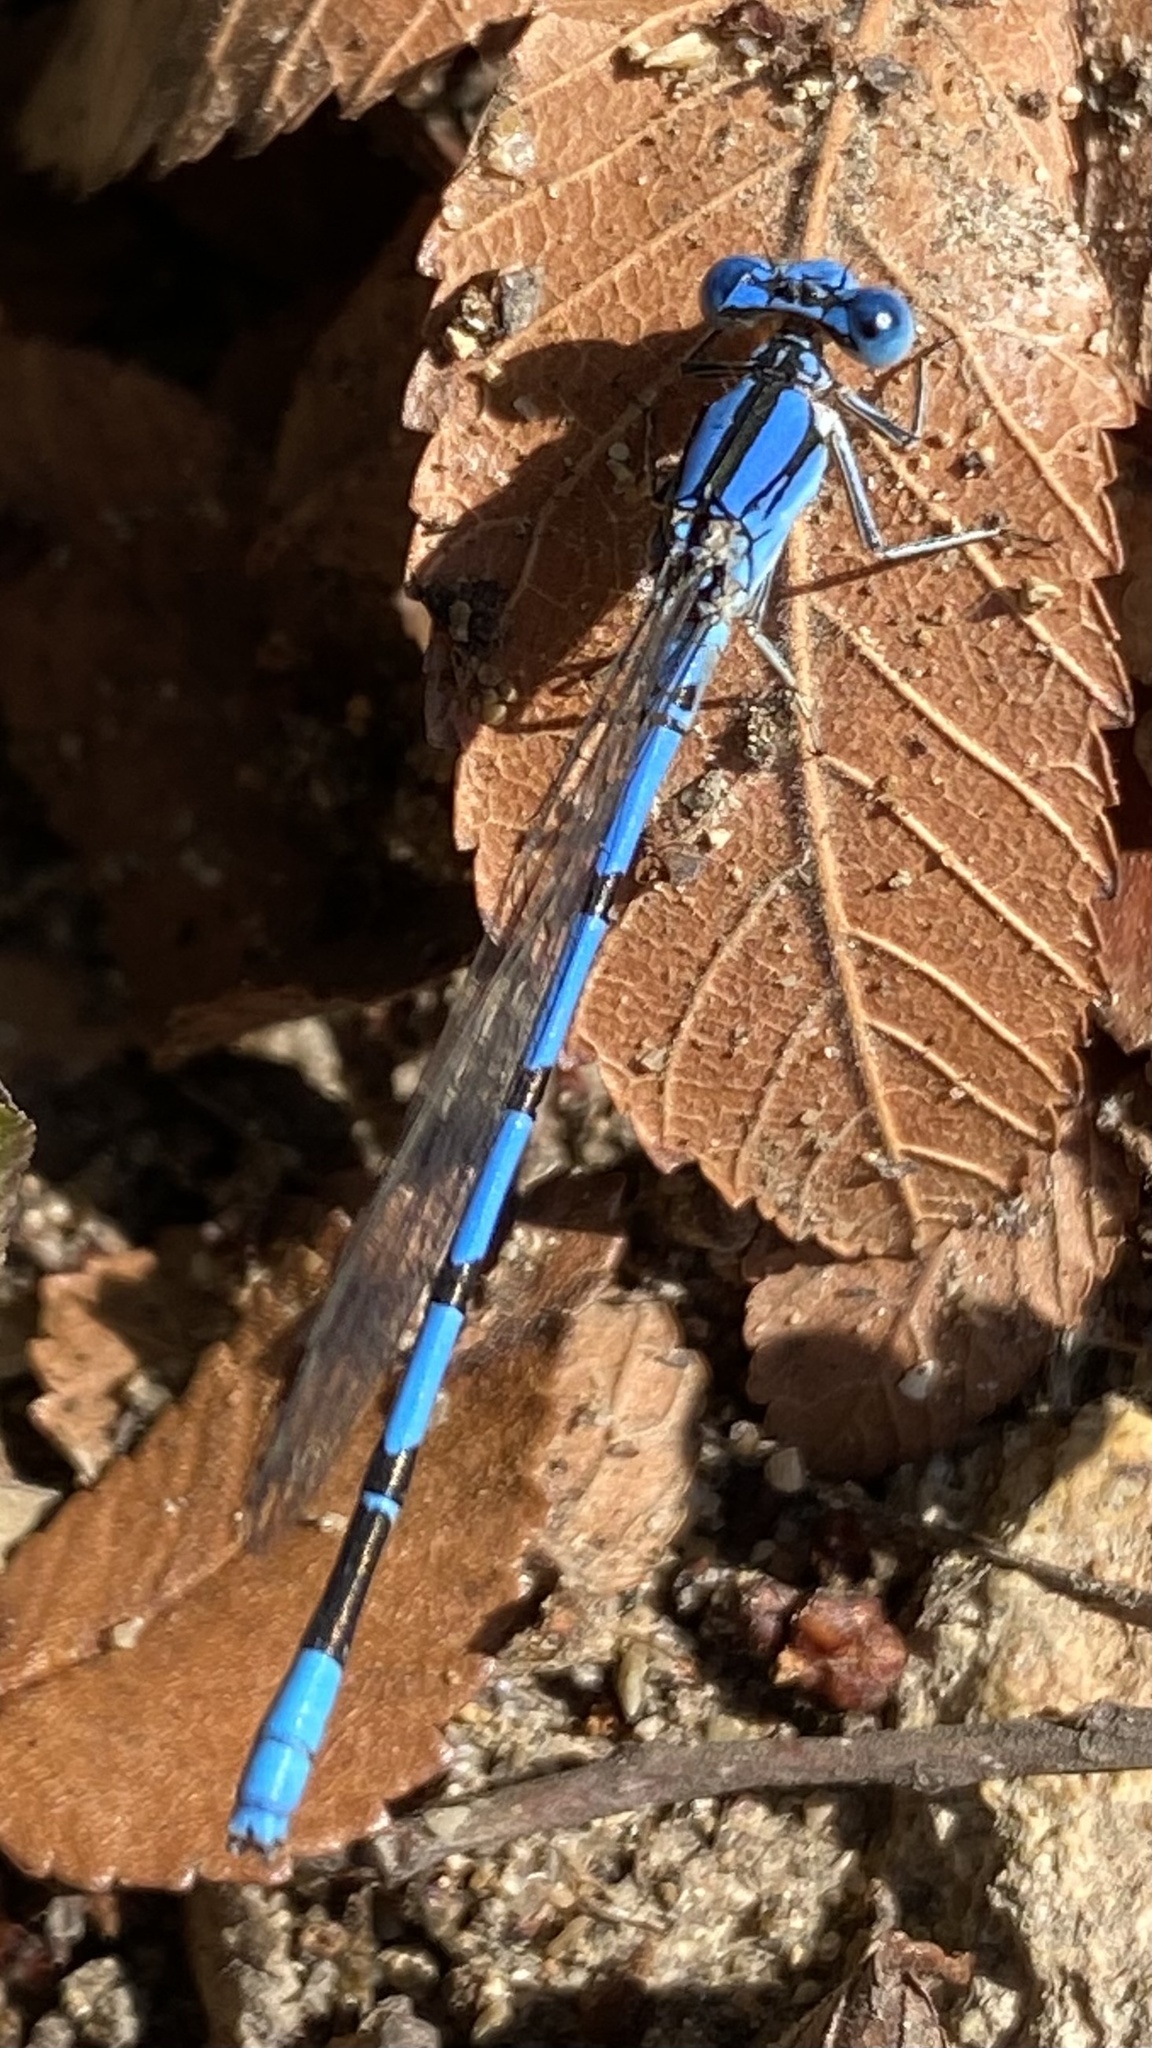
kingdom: Animalia
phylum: Arthropoda
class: Insecta
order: Odonata
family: Coenagrionidae
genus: Argia
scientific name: Argia nahuana
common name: Aztec dancer
